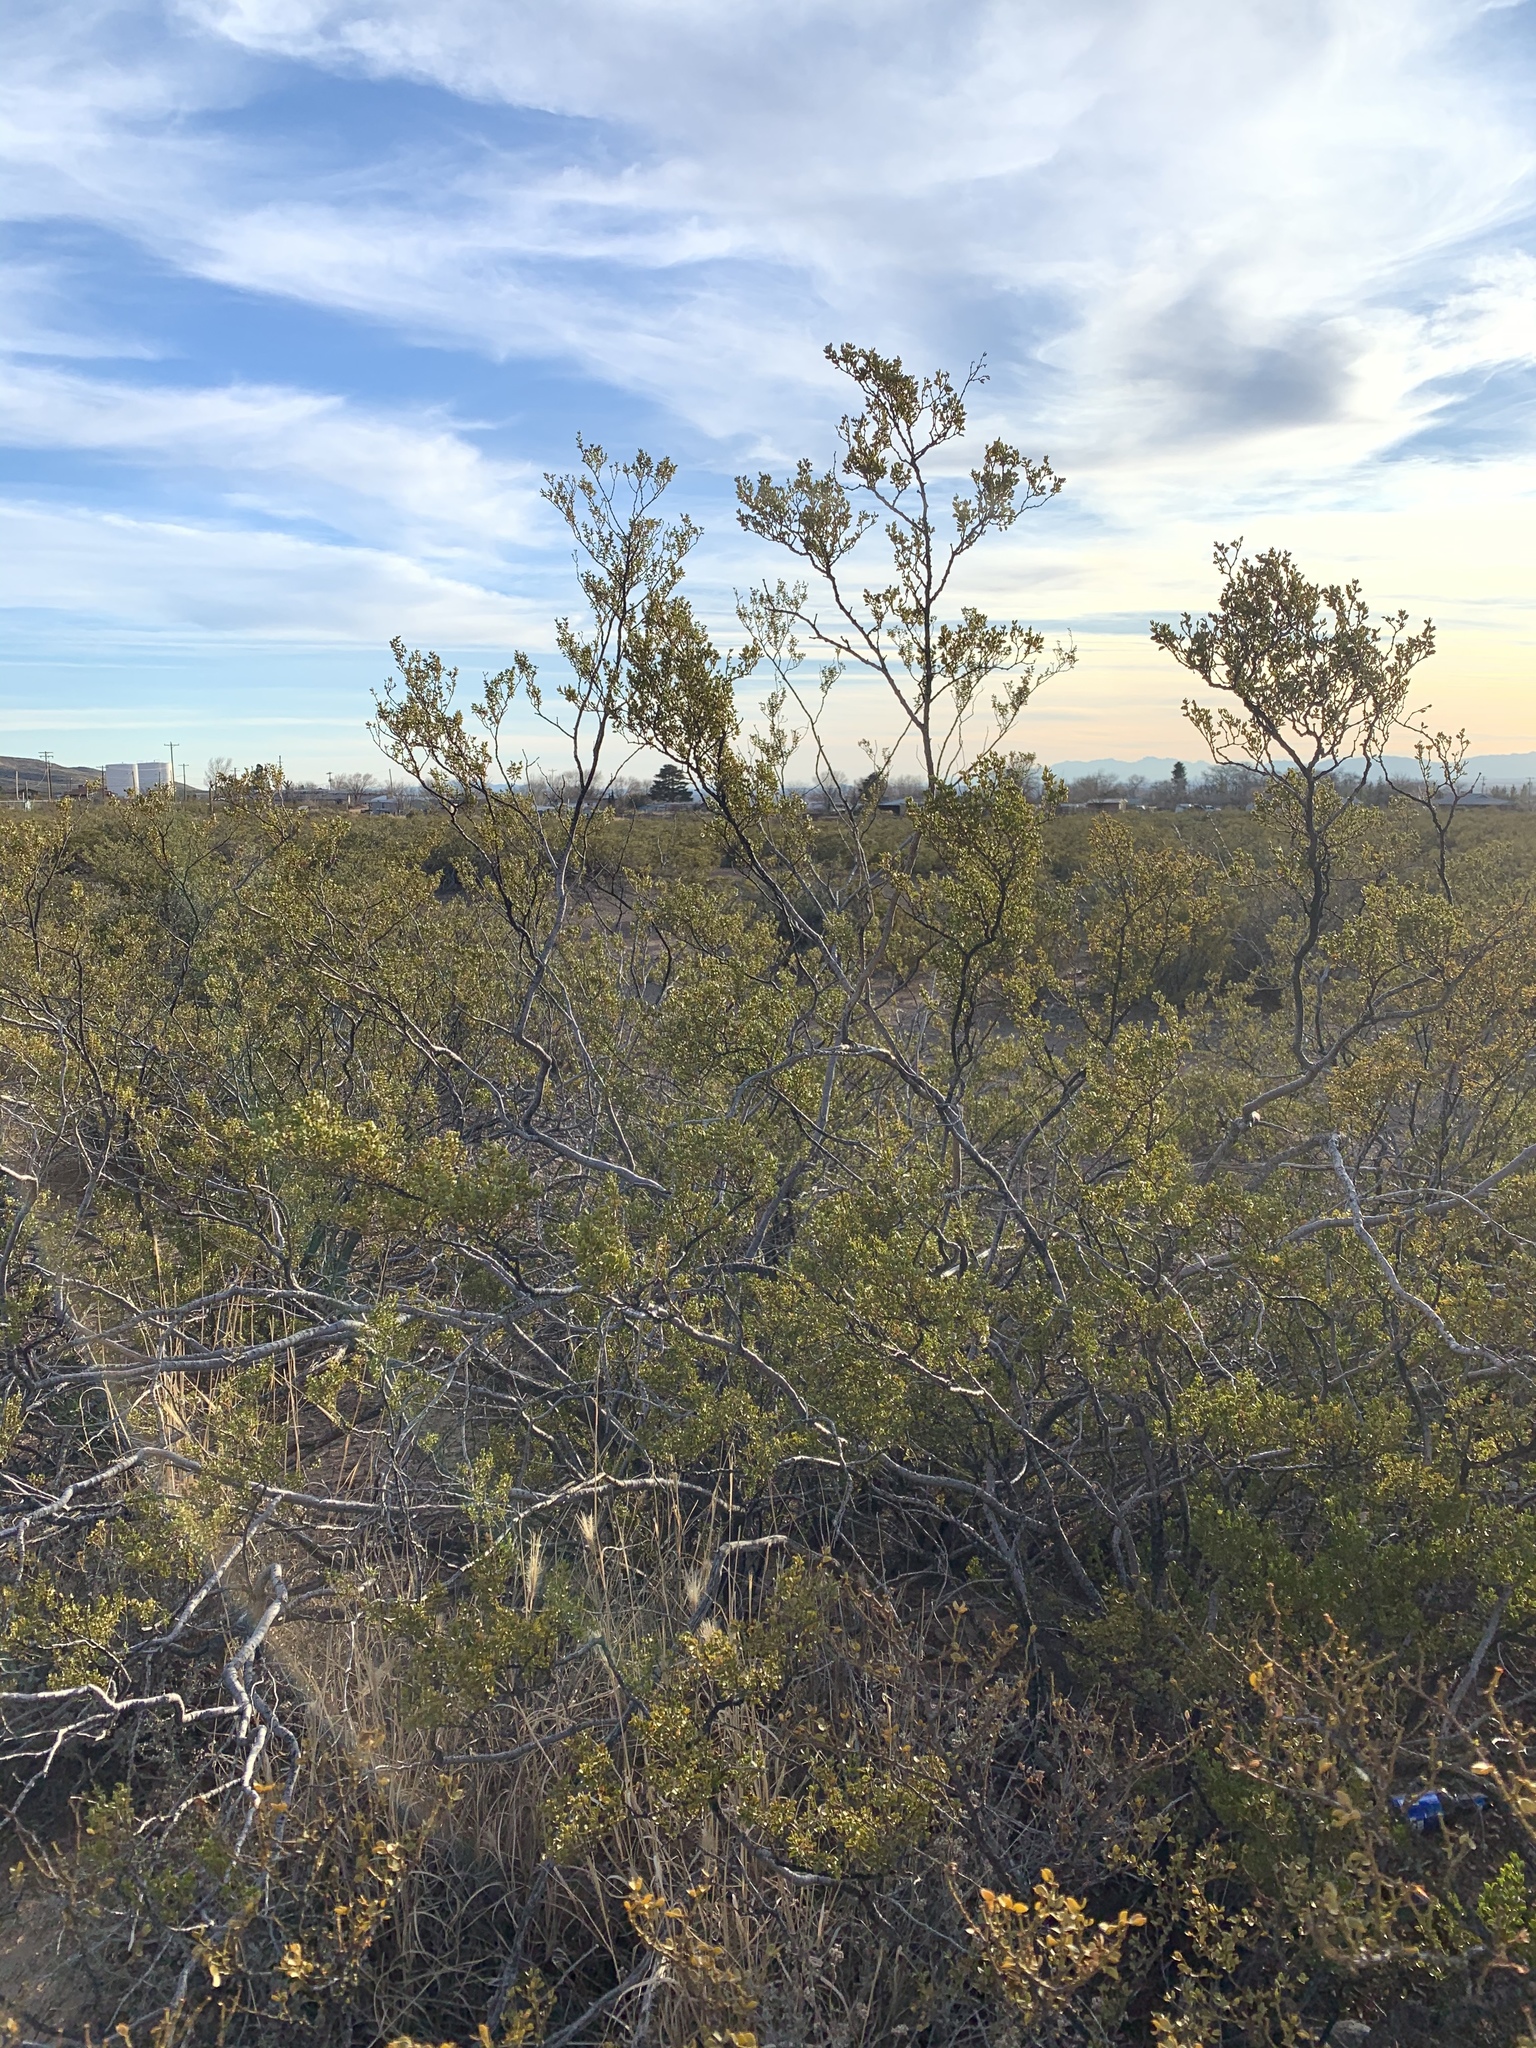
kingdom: Plantae
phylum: Tracheophyta
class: Magnoliopsida
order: Zygophyllales
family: Zygophyllaceae
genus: Larrea
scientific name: Larrea tridentata
